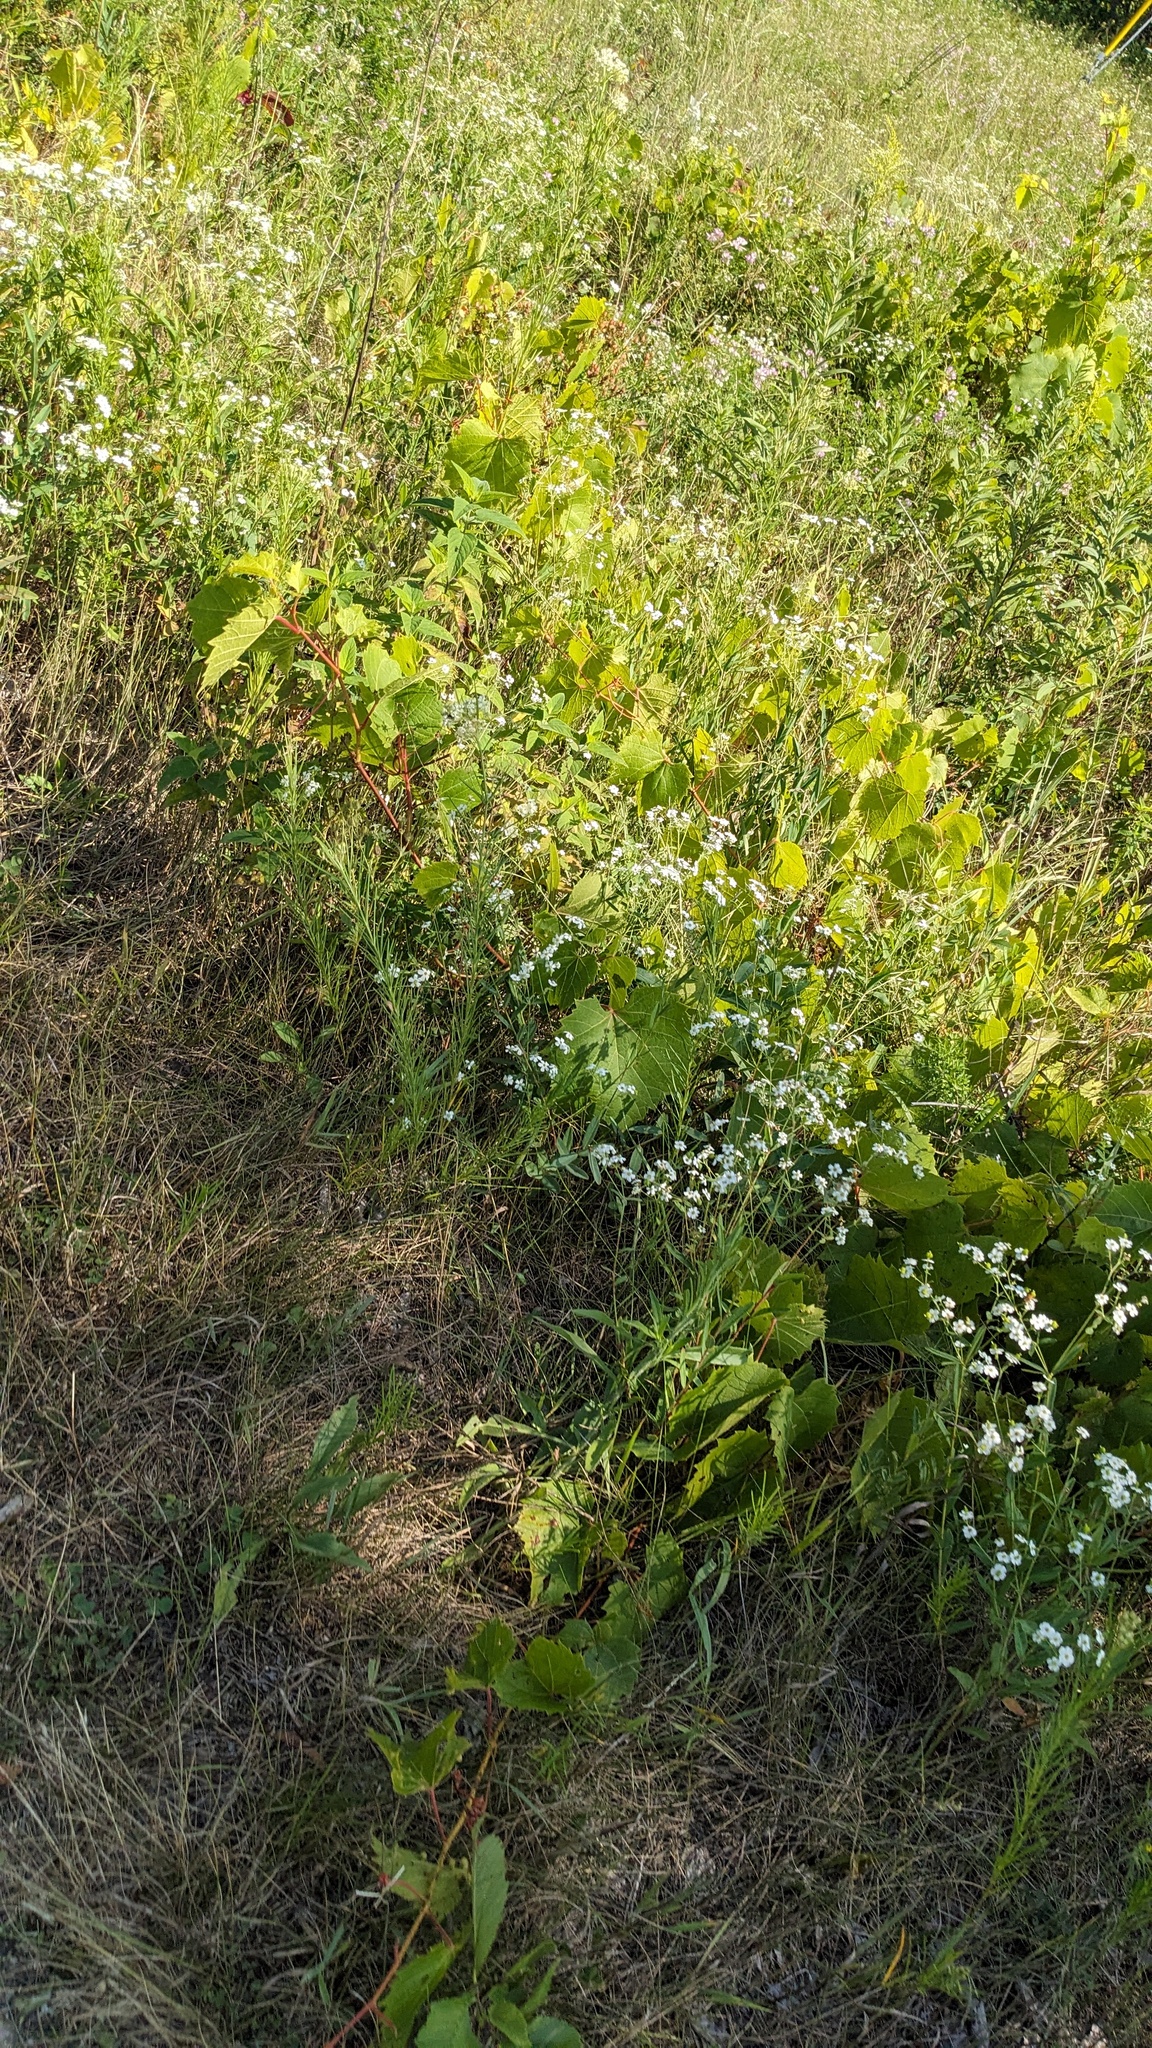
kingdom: Plantae
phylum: Tracheophyta
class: Magnoliopsida
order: Malpighiales
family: Euphorbiaceae
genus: Euphorbia
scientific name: Euphorbia corollata
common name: Flowering spurge
